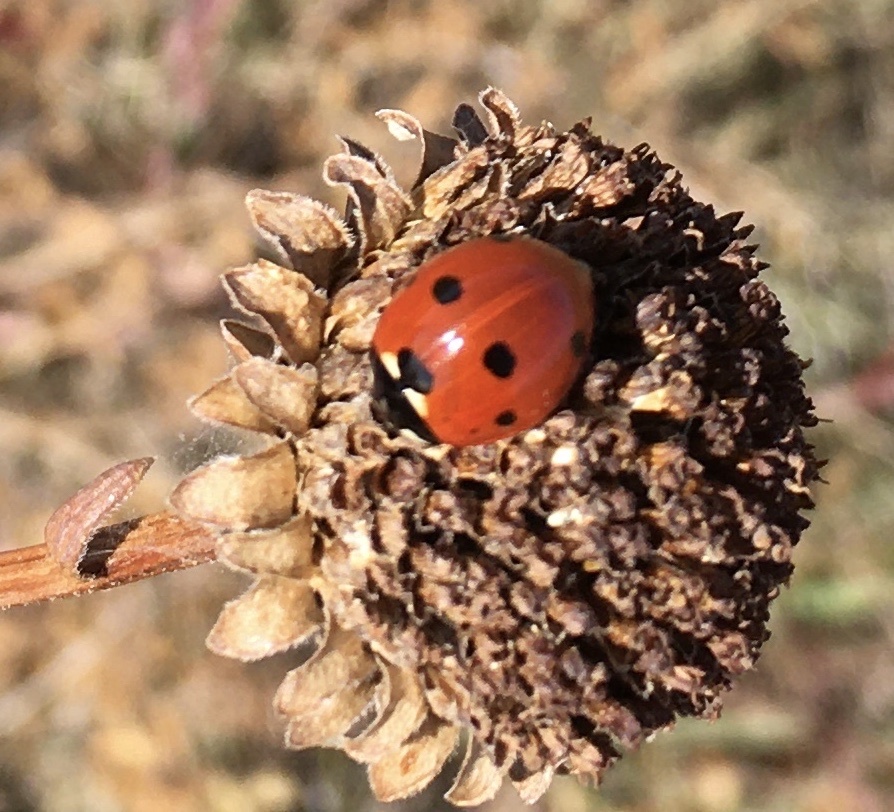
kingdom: Animalia
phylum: Arthropoda
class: Insecta
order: Coleoptera
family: Coccinellidae
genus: Coccinella
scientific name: Coccinella septempunctata
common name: Sevenspotted lady beetle
